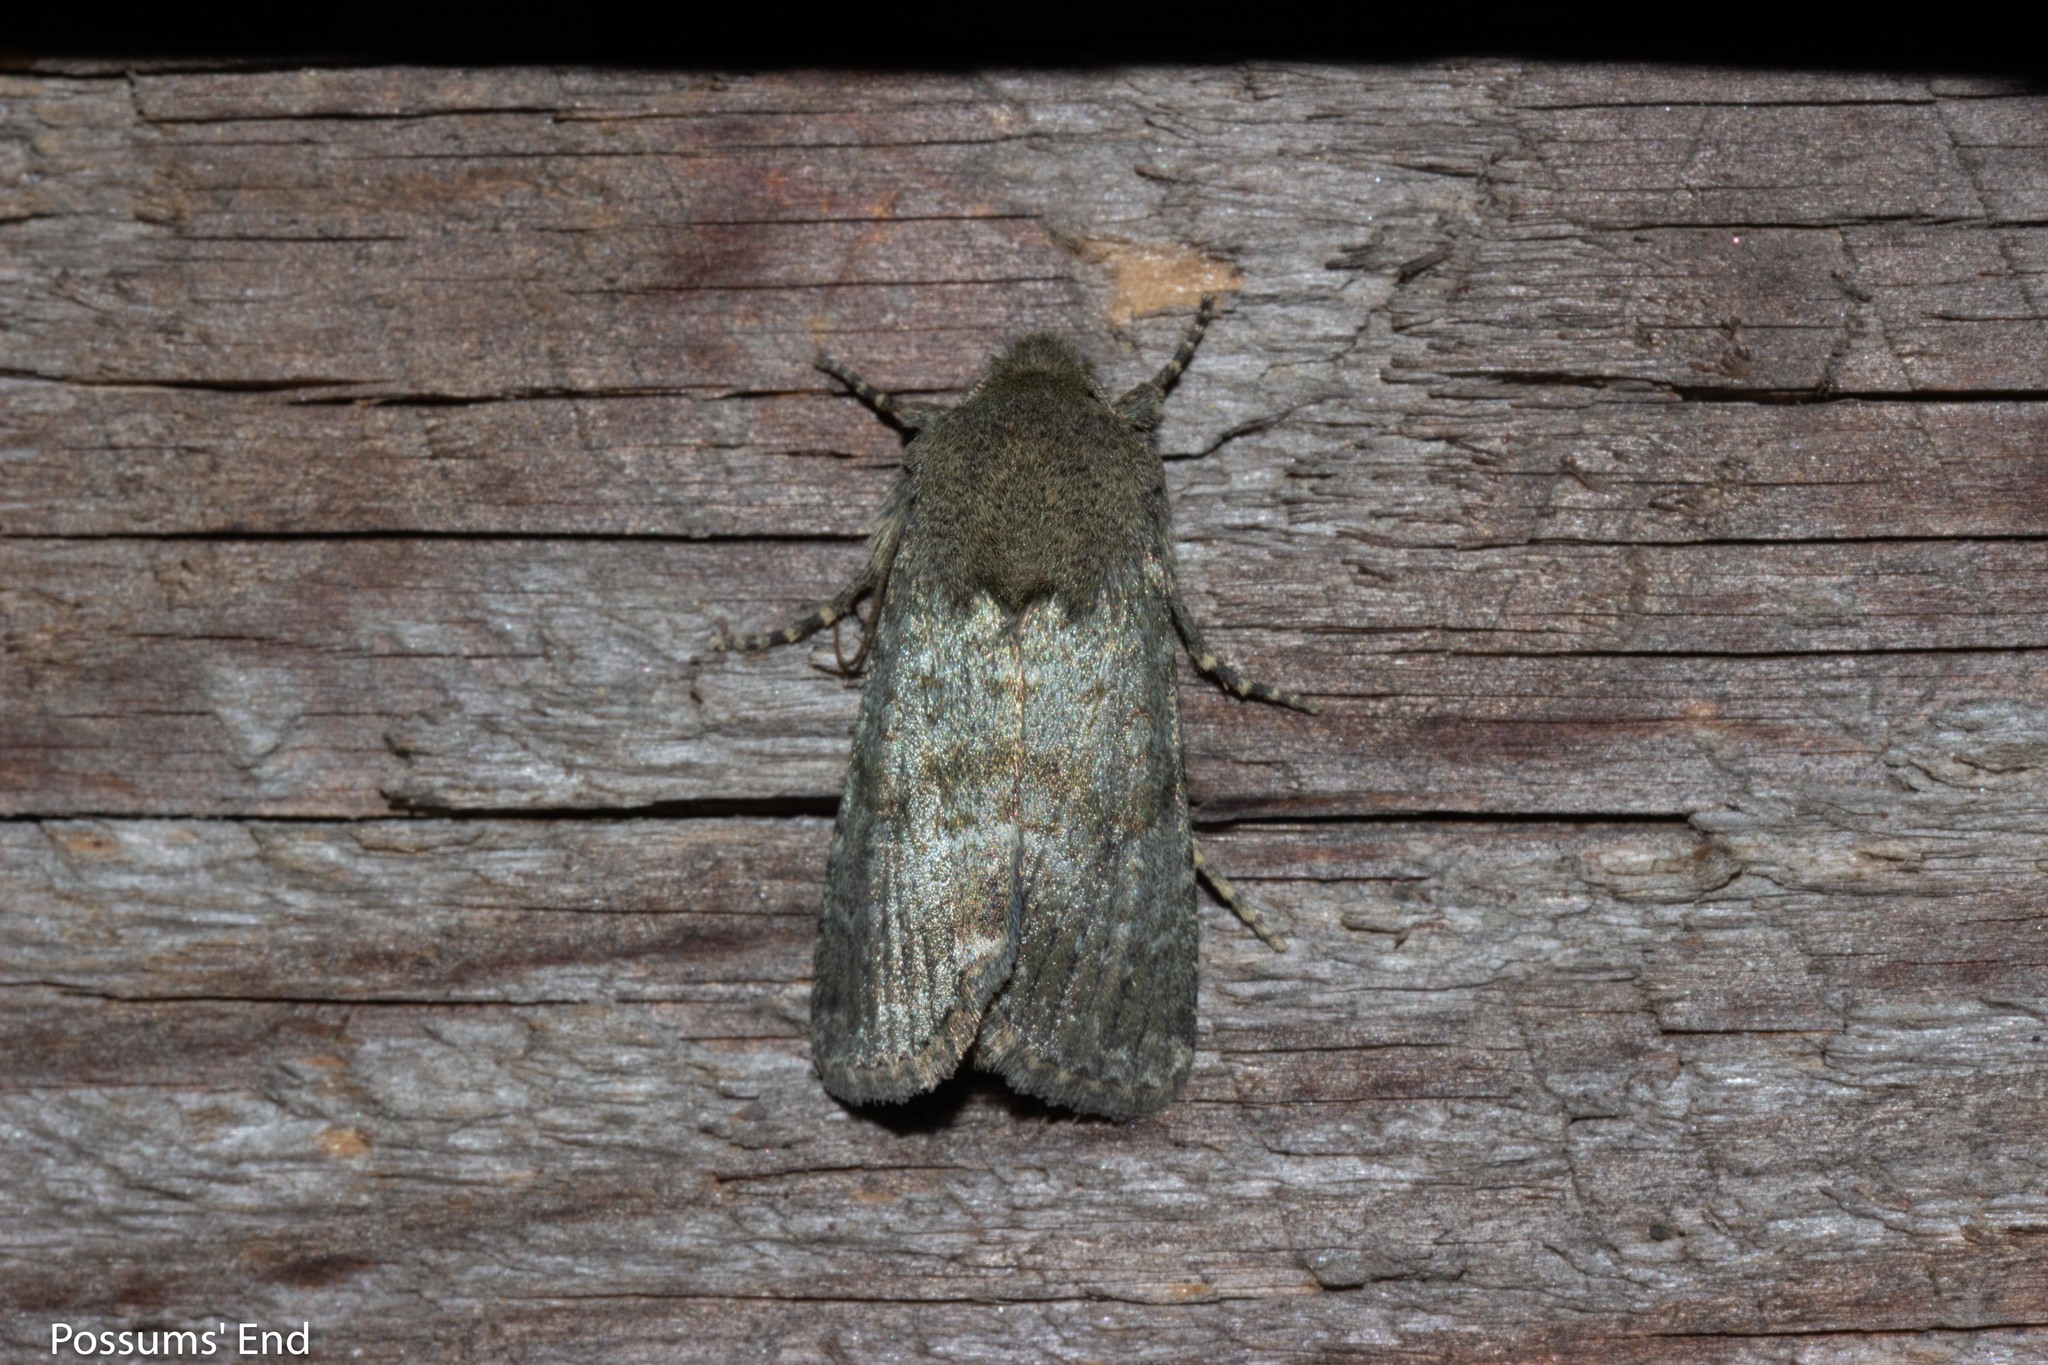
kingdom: Animalia
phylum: Arthropoda
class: Insecta
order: Lepidoptera
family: Noctuidae
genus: Ichneutica
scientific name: Ichneutica moderata
